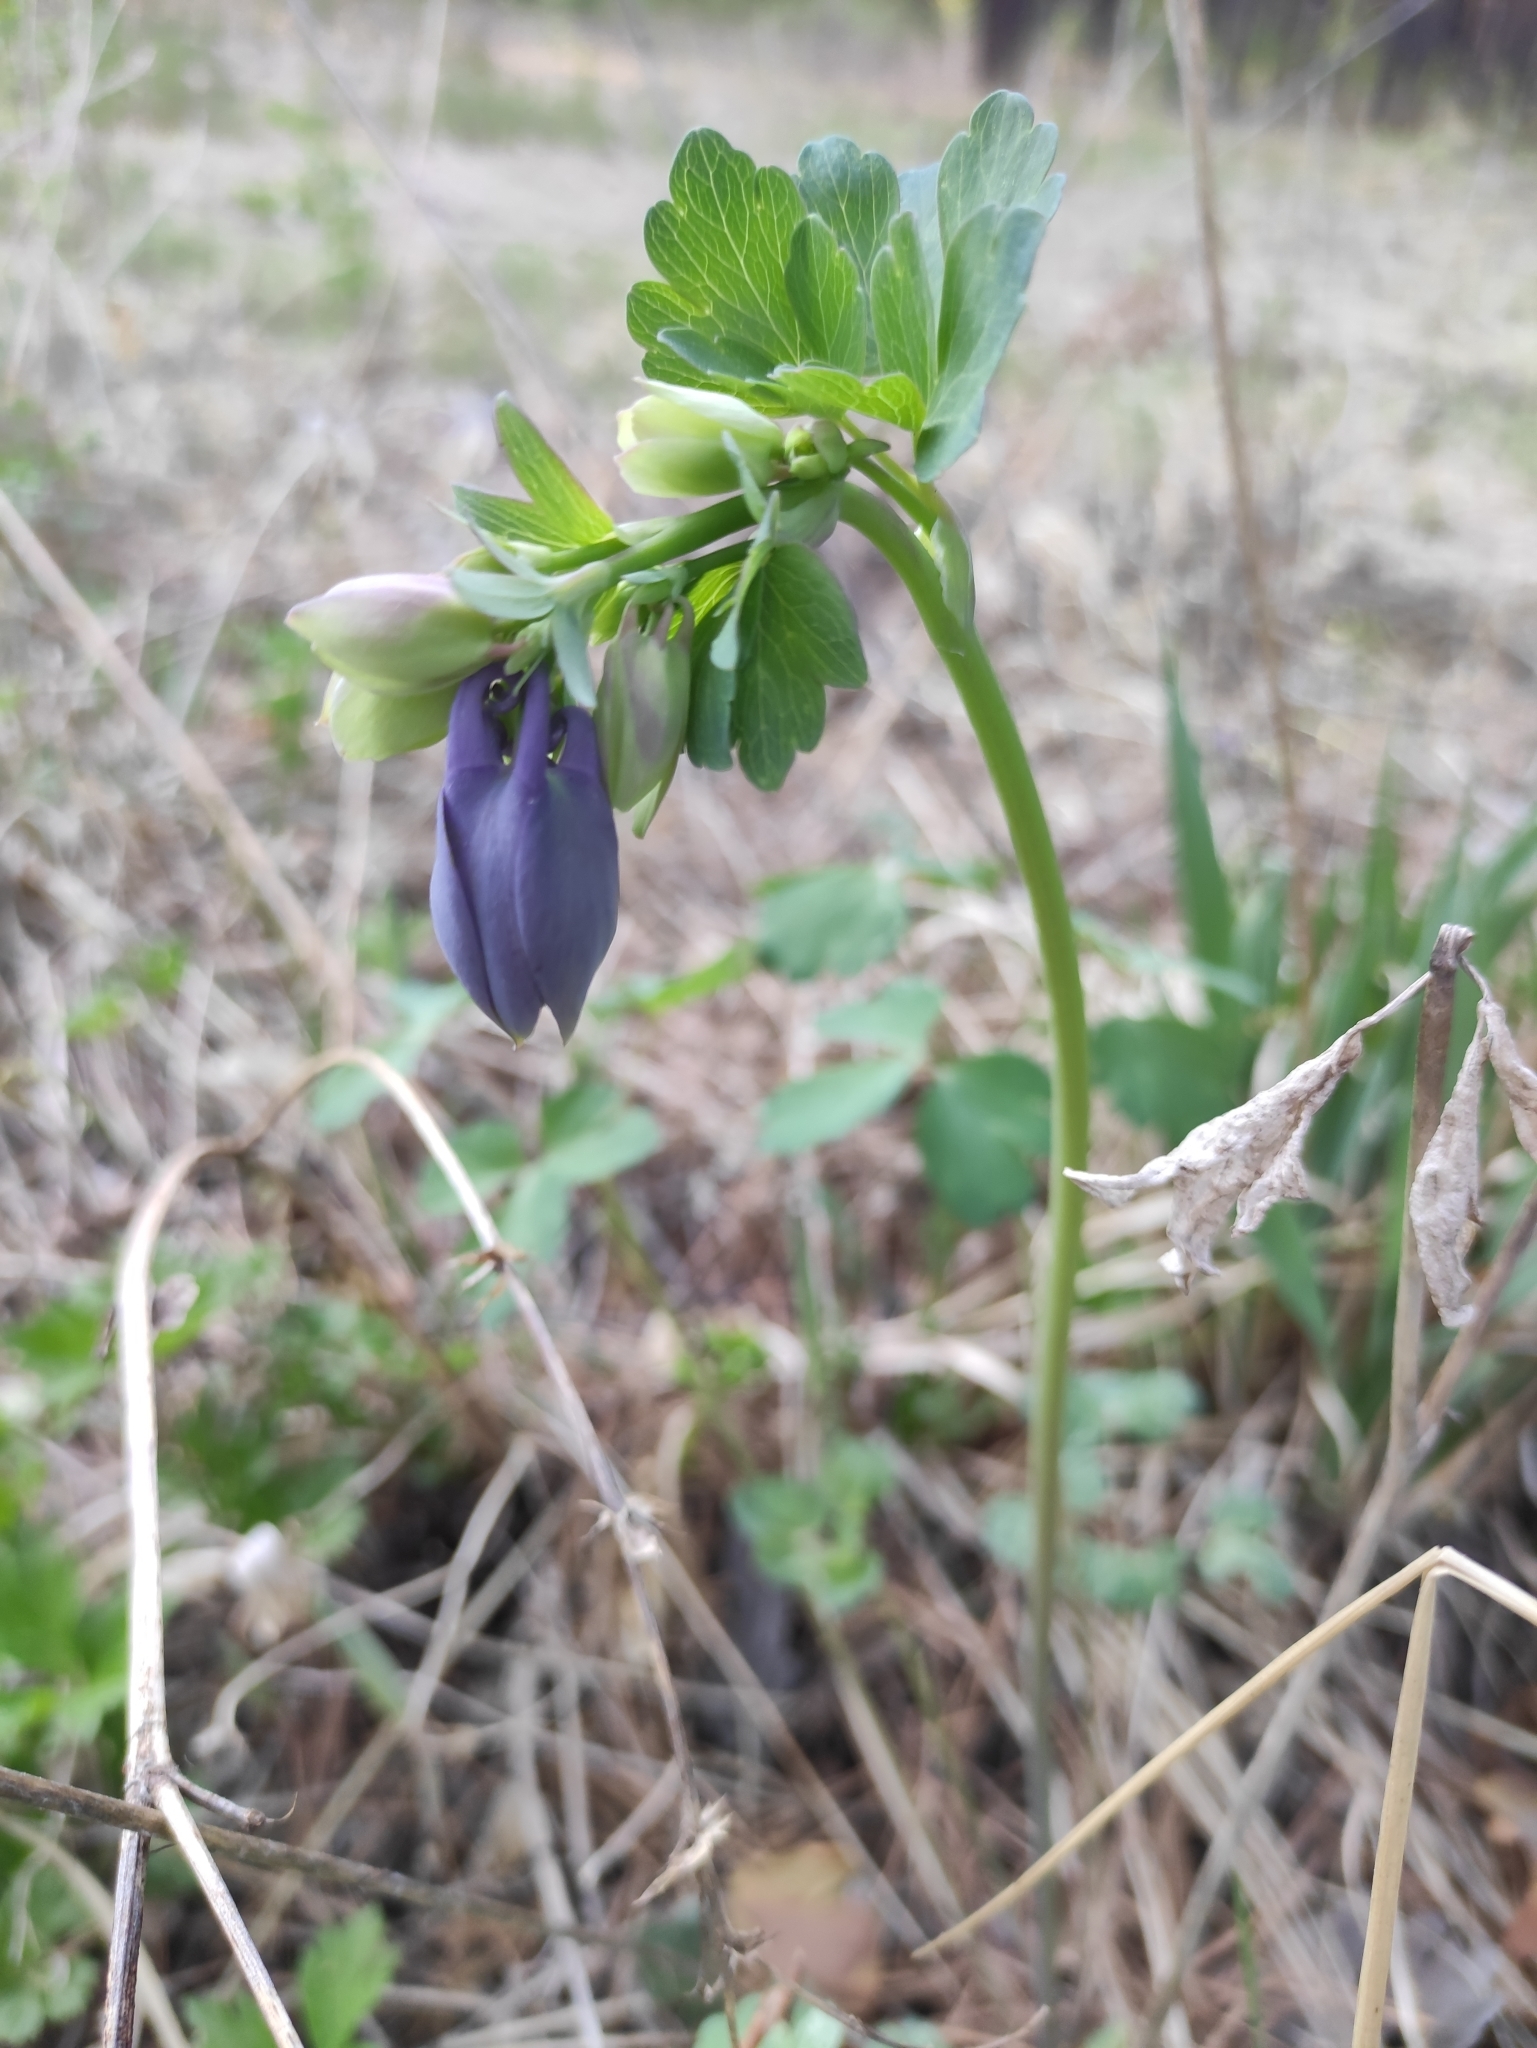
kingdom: Plantae
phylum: Tracheophyta
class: Magnoliopsida
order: Ranunculales
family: Ranunculaceae
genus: Aquilegia
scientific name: Aquilegia sibirica
